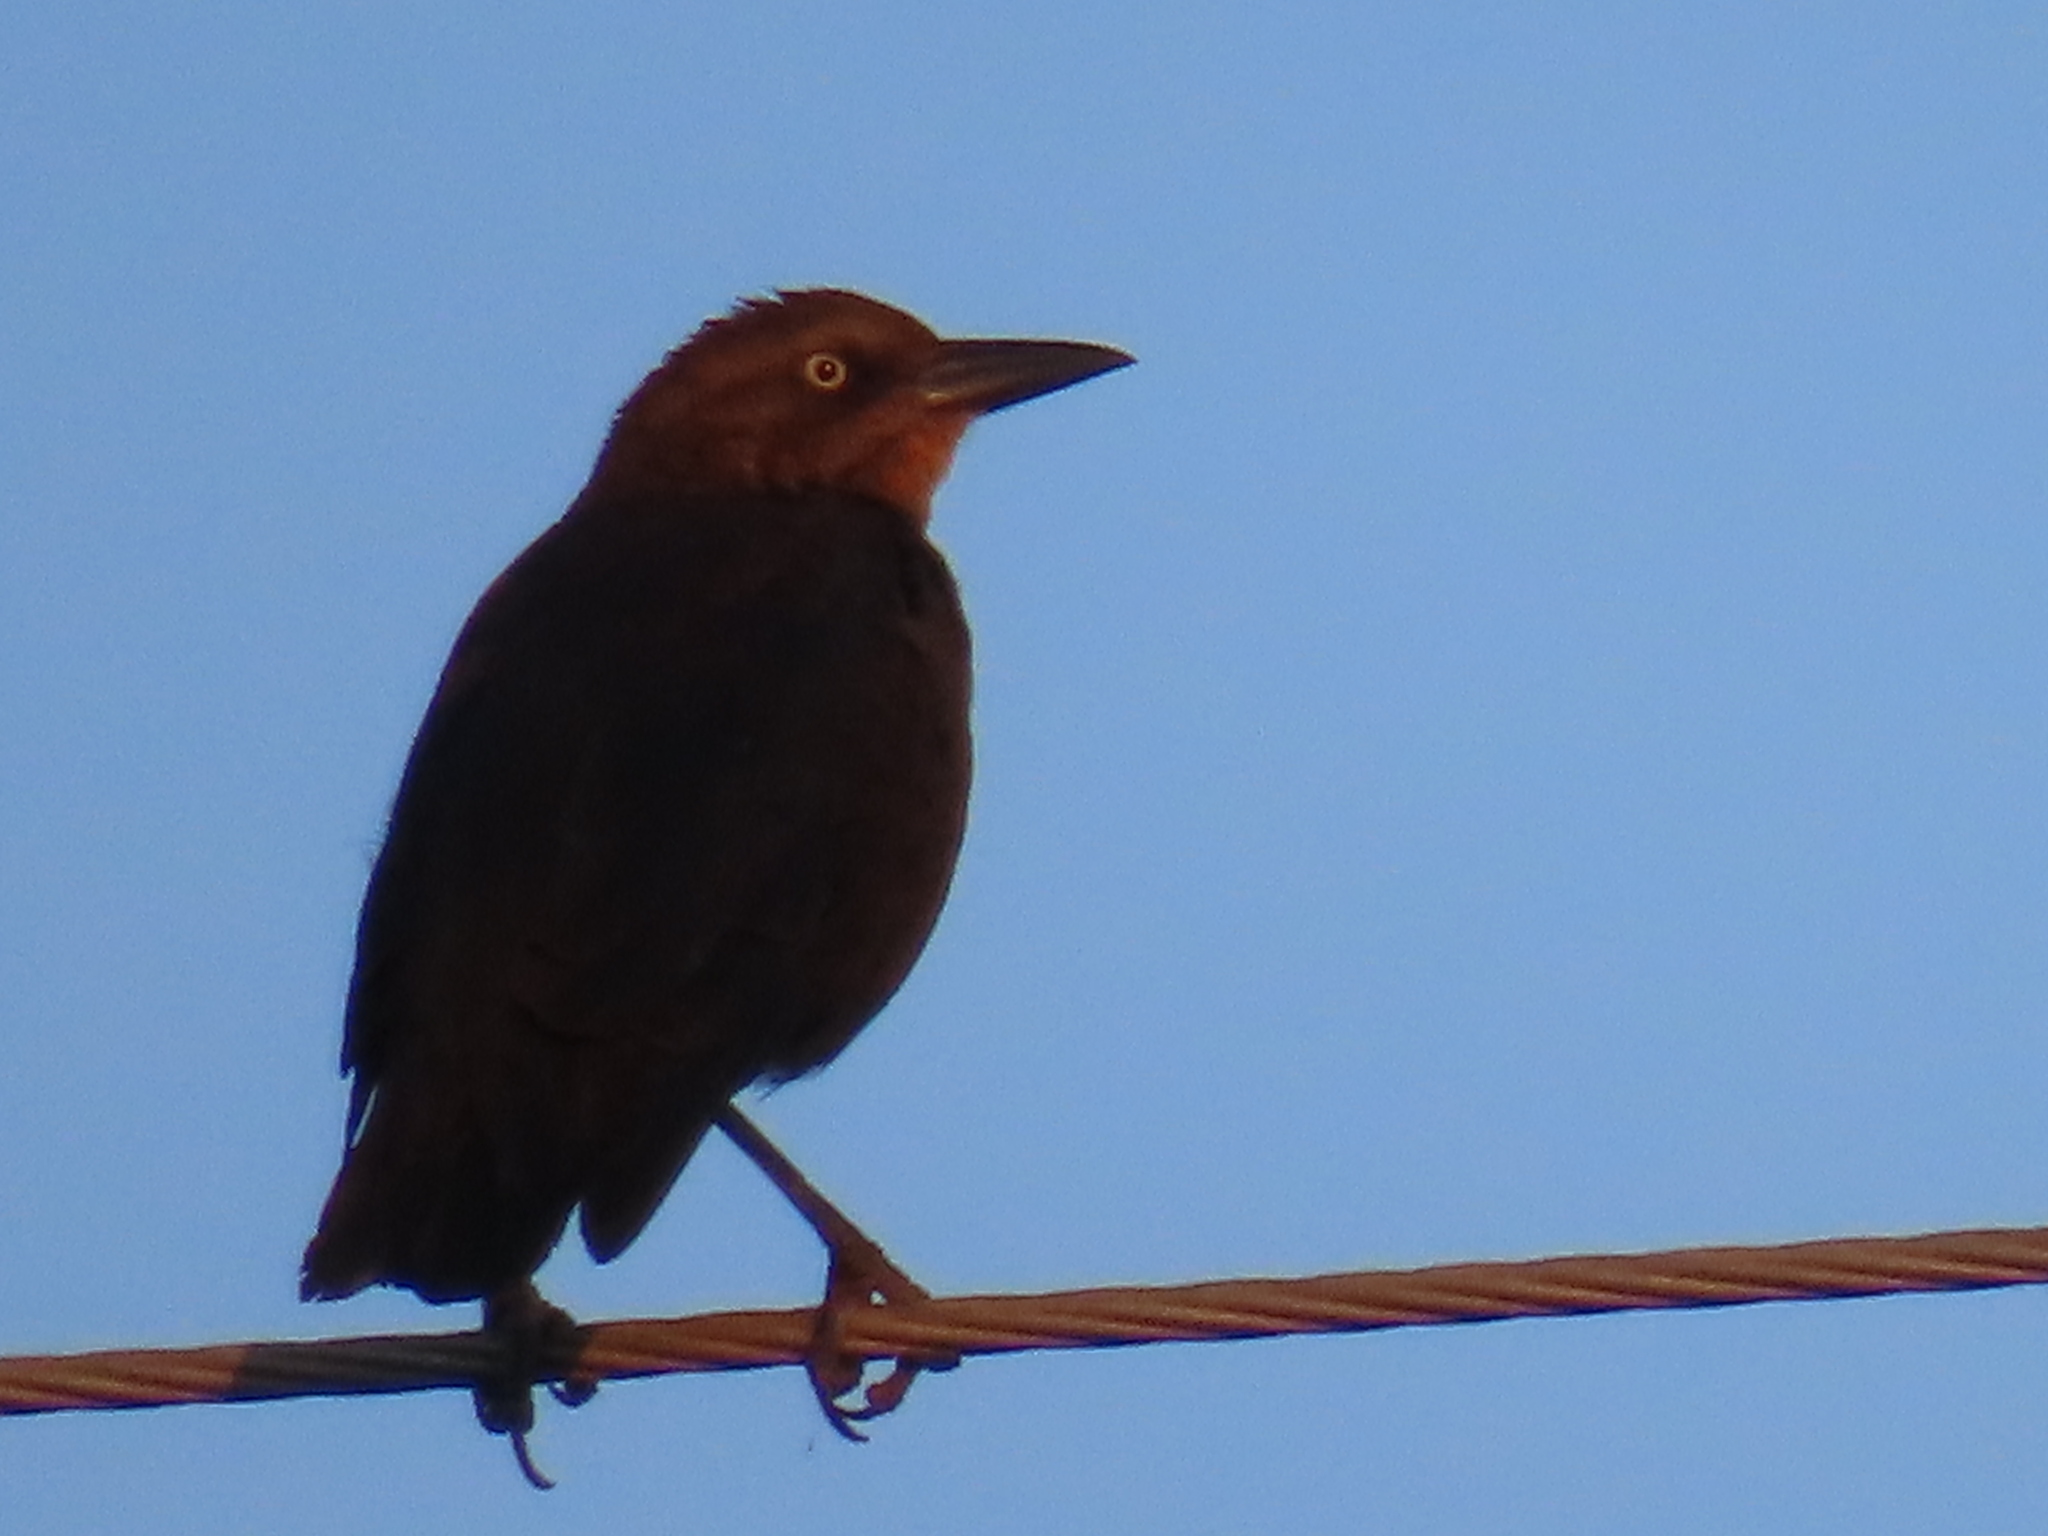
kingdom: Animalia
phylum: Chordata
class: Aves
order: Passeriformes
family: Icteridae
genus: Quiscalus
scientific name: Quiscalus mexicanus
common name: Great-tailed grackle
